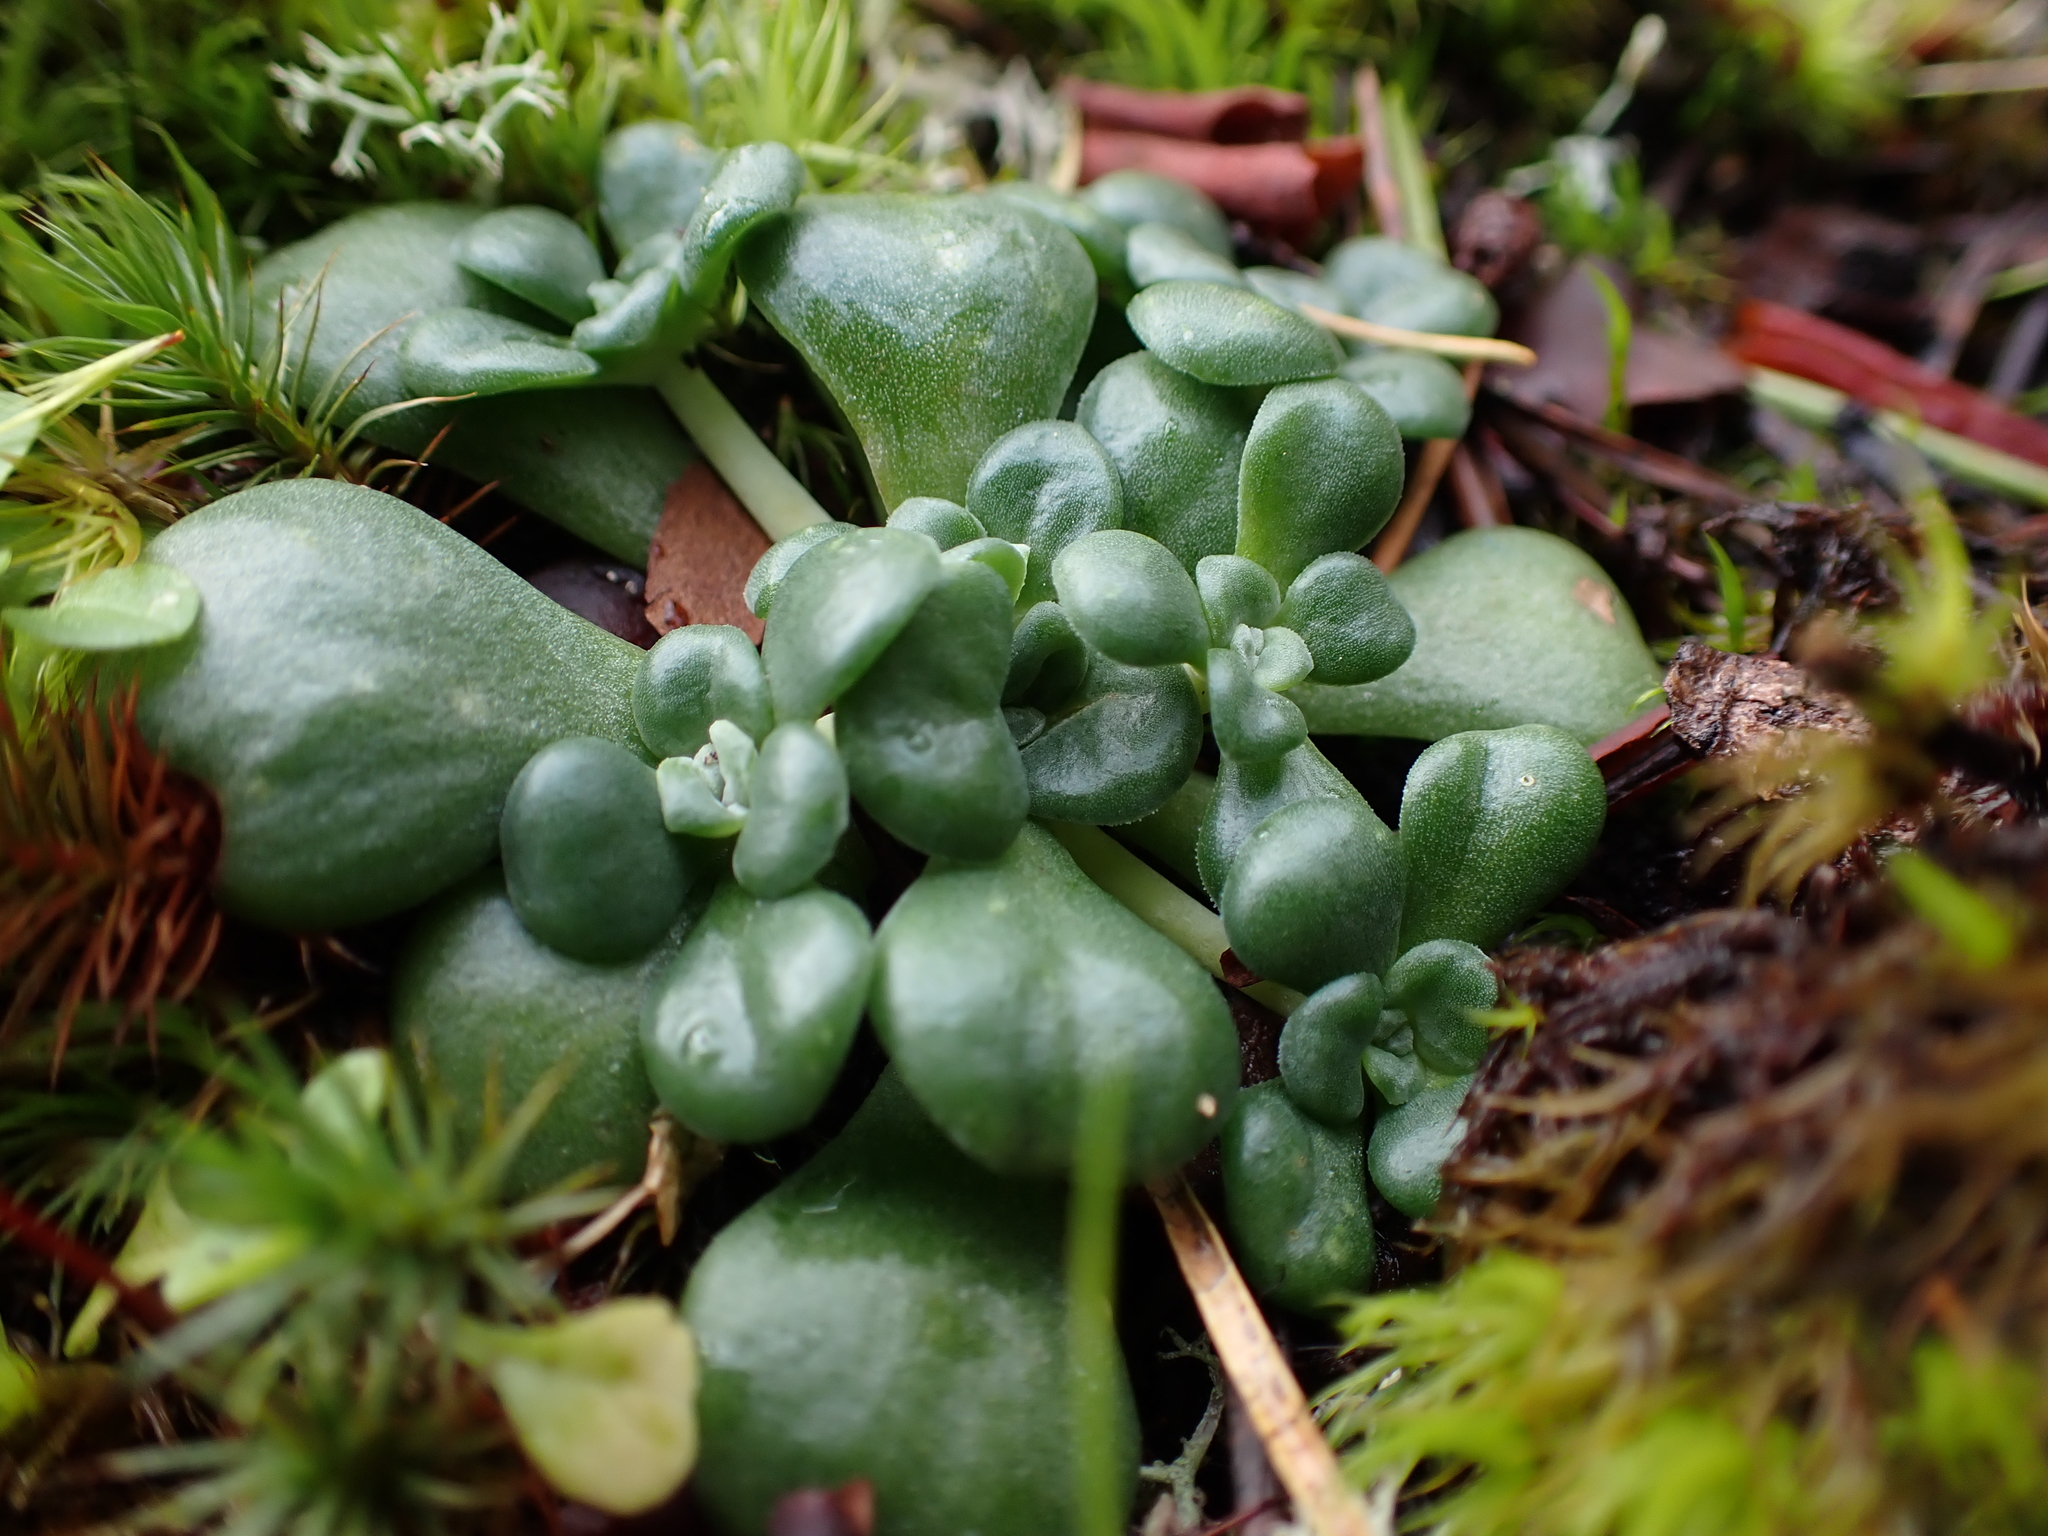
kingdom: Plantae
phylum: Tracheophyta
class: Magnoliopsida
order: Saxifragales
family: Crassulaceae
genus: Sedum
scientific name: Sedum spathulifolium
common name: Colorado stonecrop
